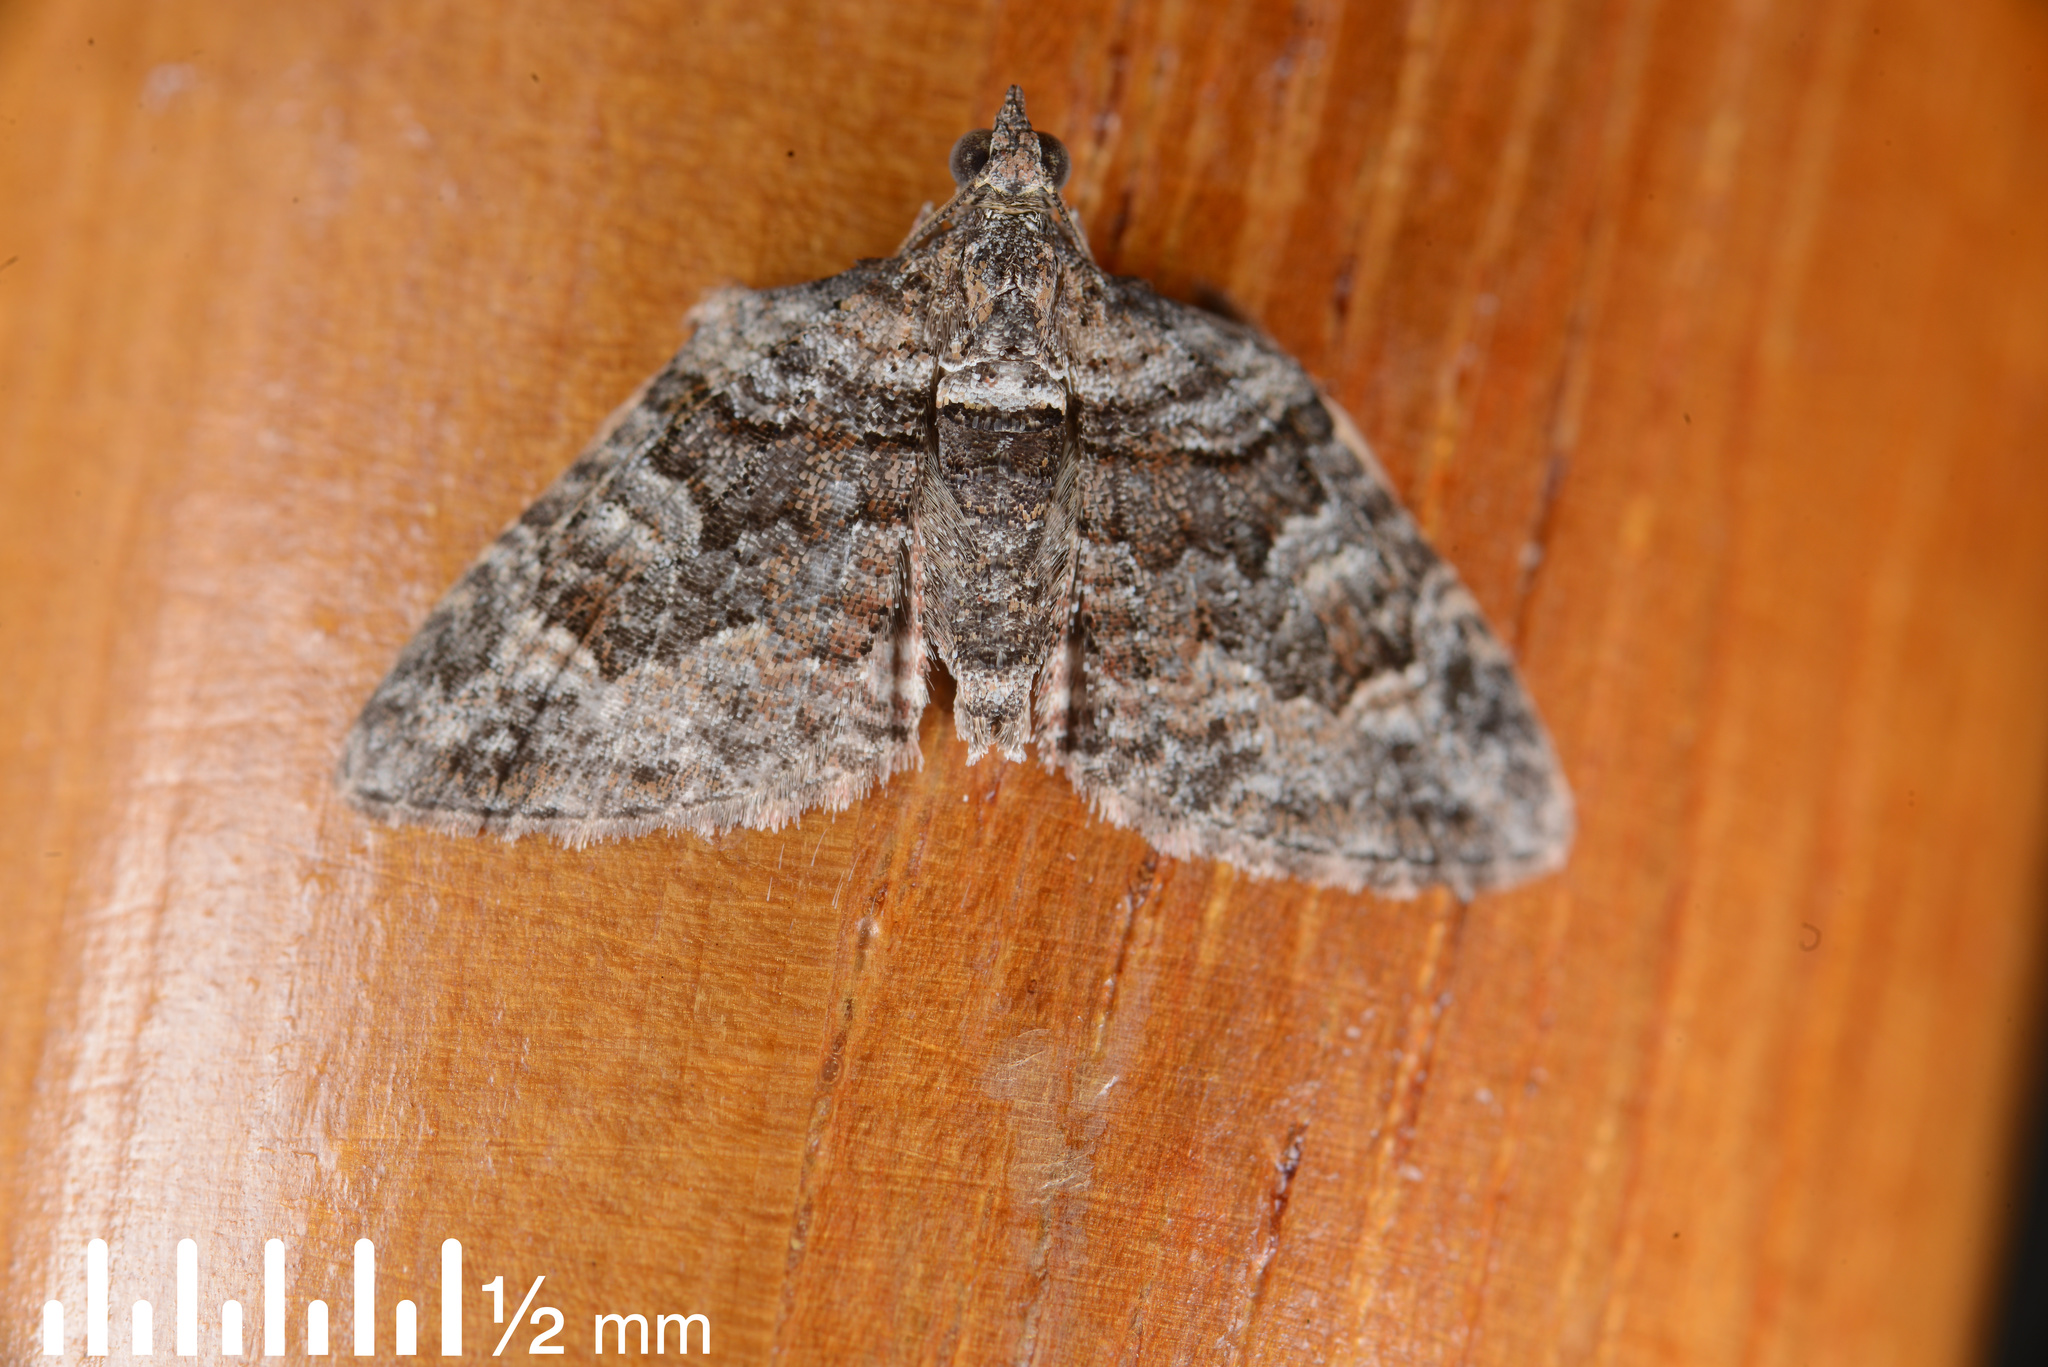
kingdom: Animalia
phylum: Arthropoda
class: Insecta
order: Lepidoptera
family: Geometridae
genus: Phrissogonus
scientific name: Phrissogonus laticostata
